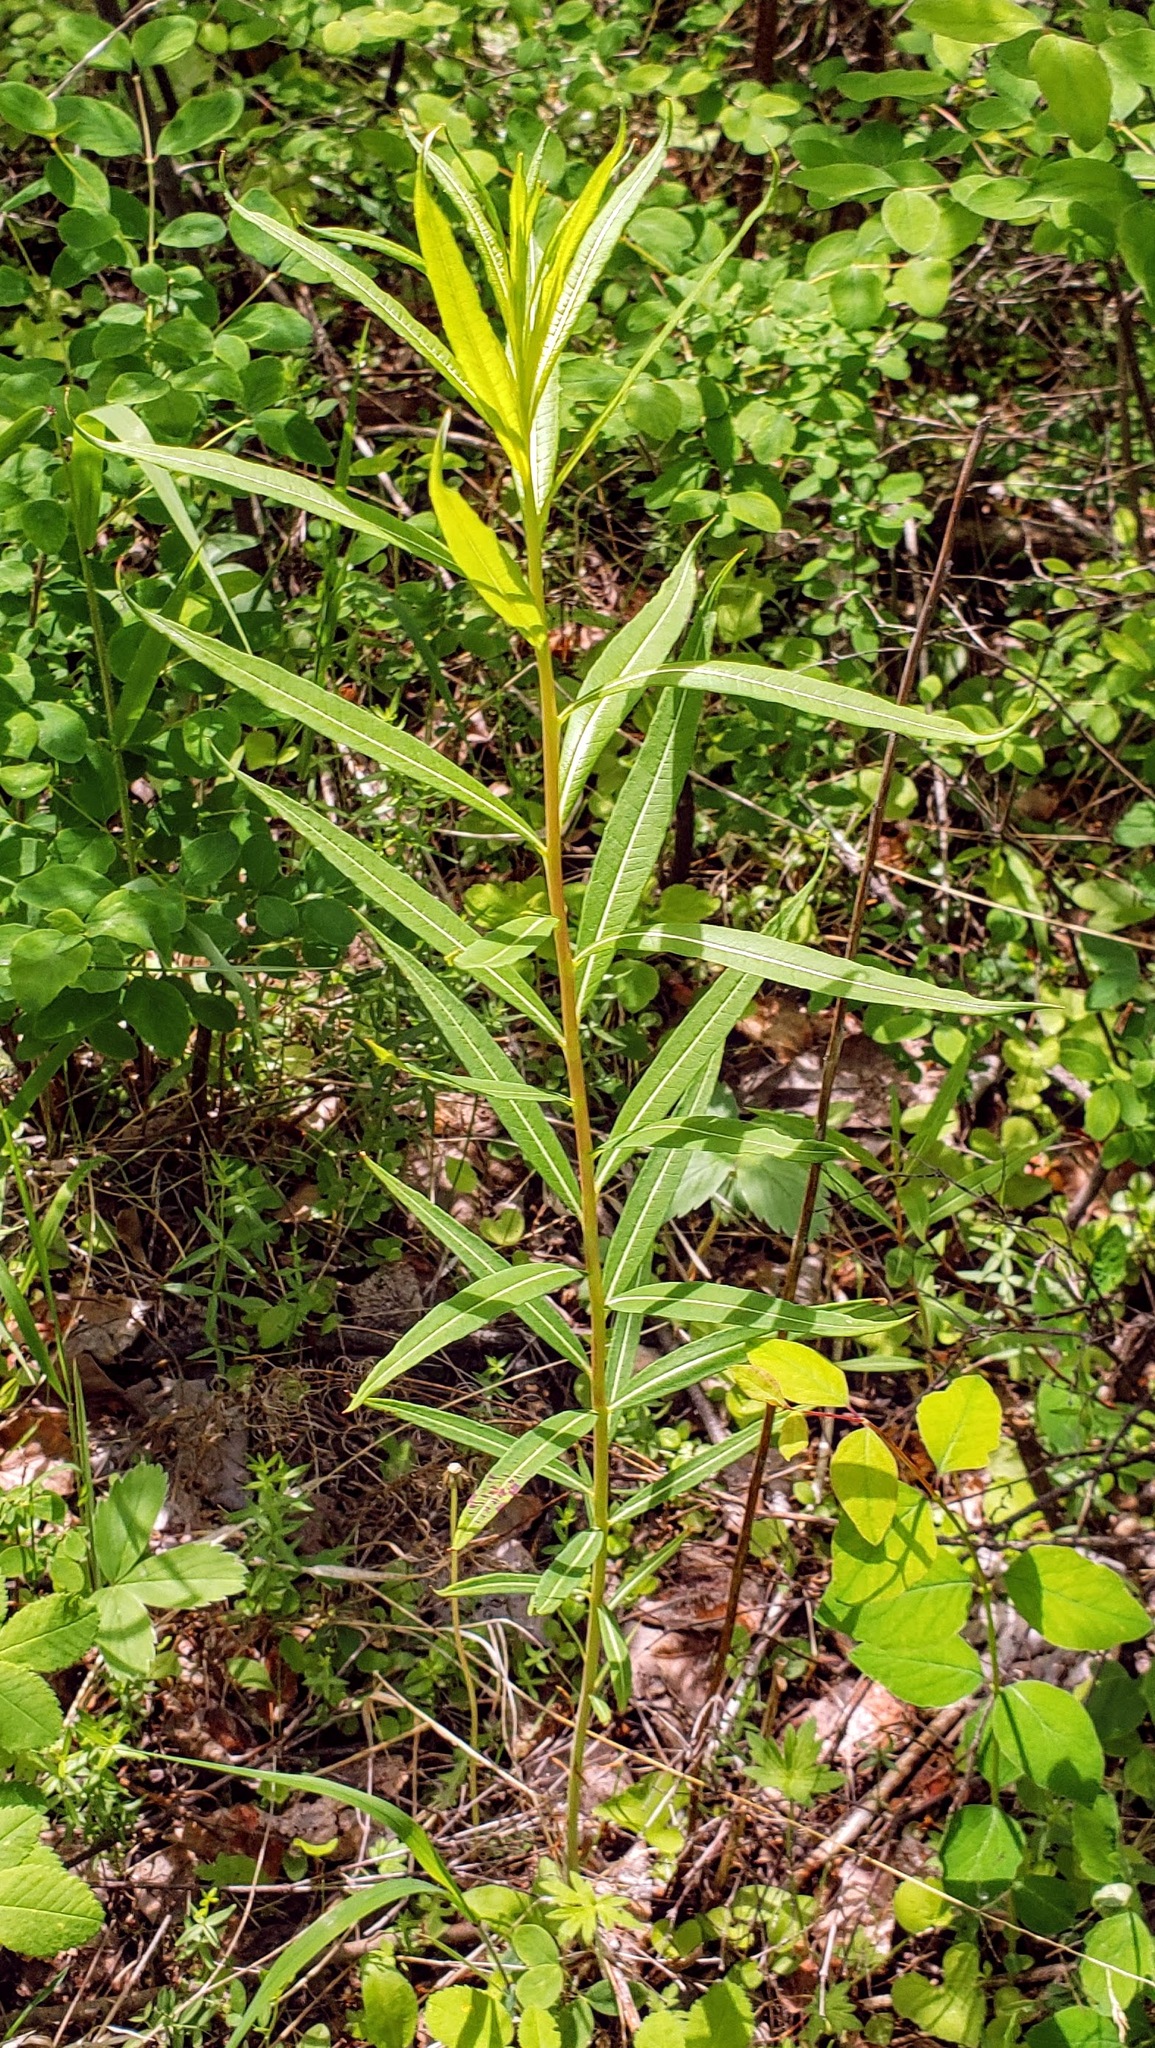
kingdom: Plantae
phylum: Tracheophyta
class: Magnoliopsida
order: Myrtales
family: Onagraceae
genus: Chamaenerion
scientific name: Chamaenerion angustifolium
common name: Fireweed
